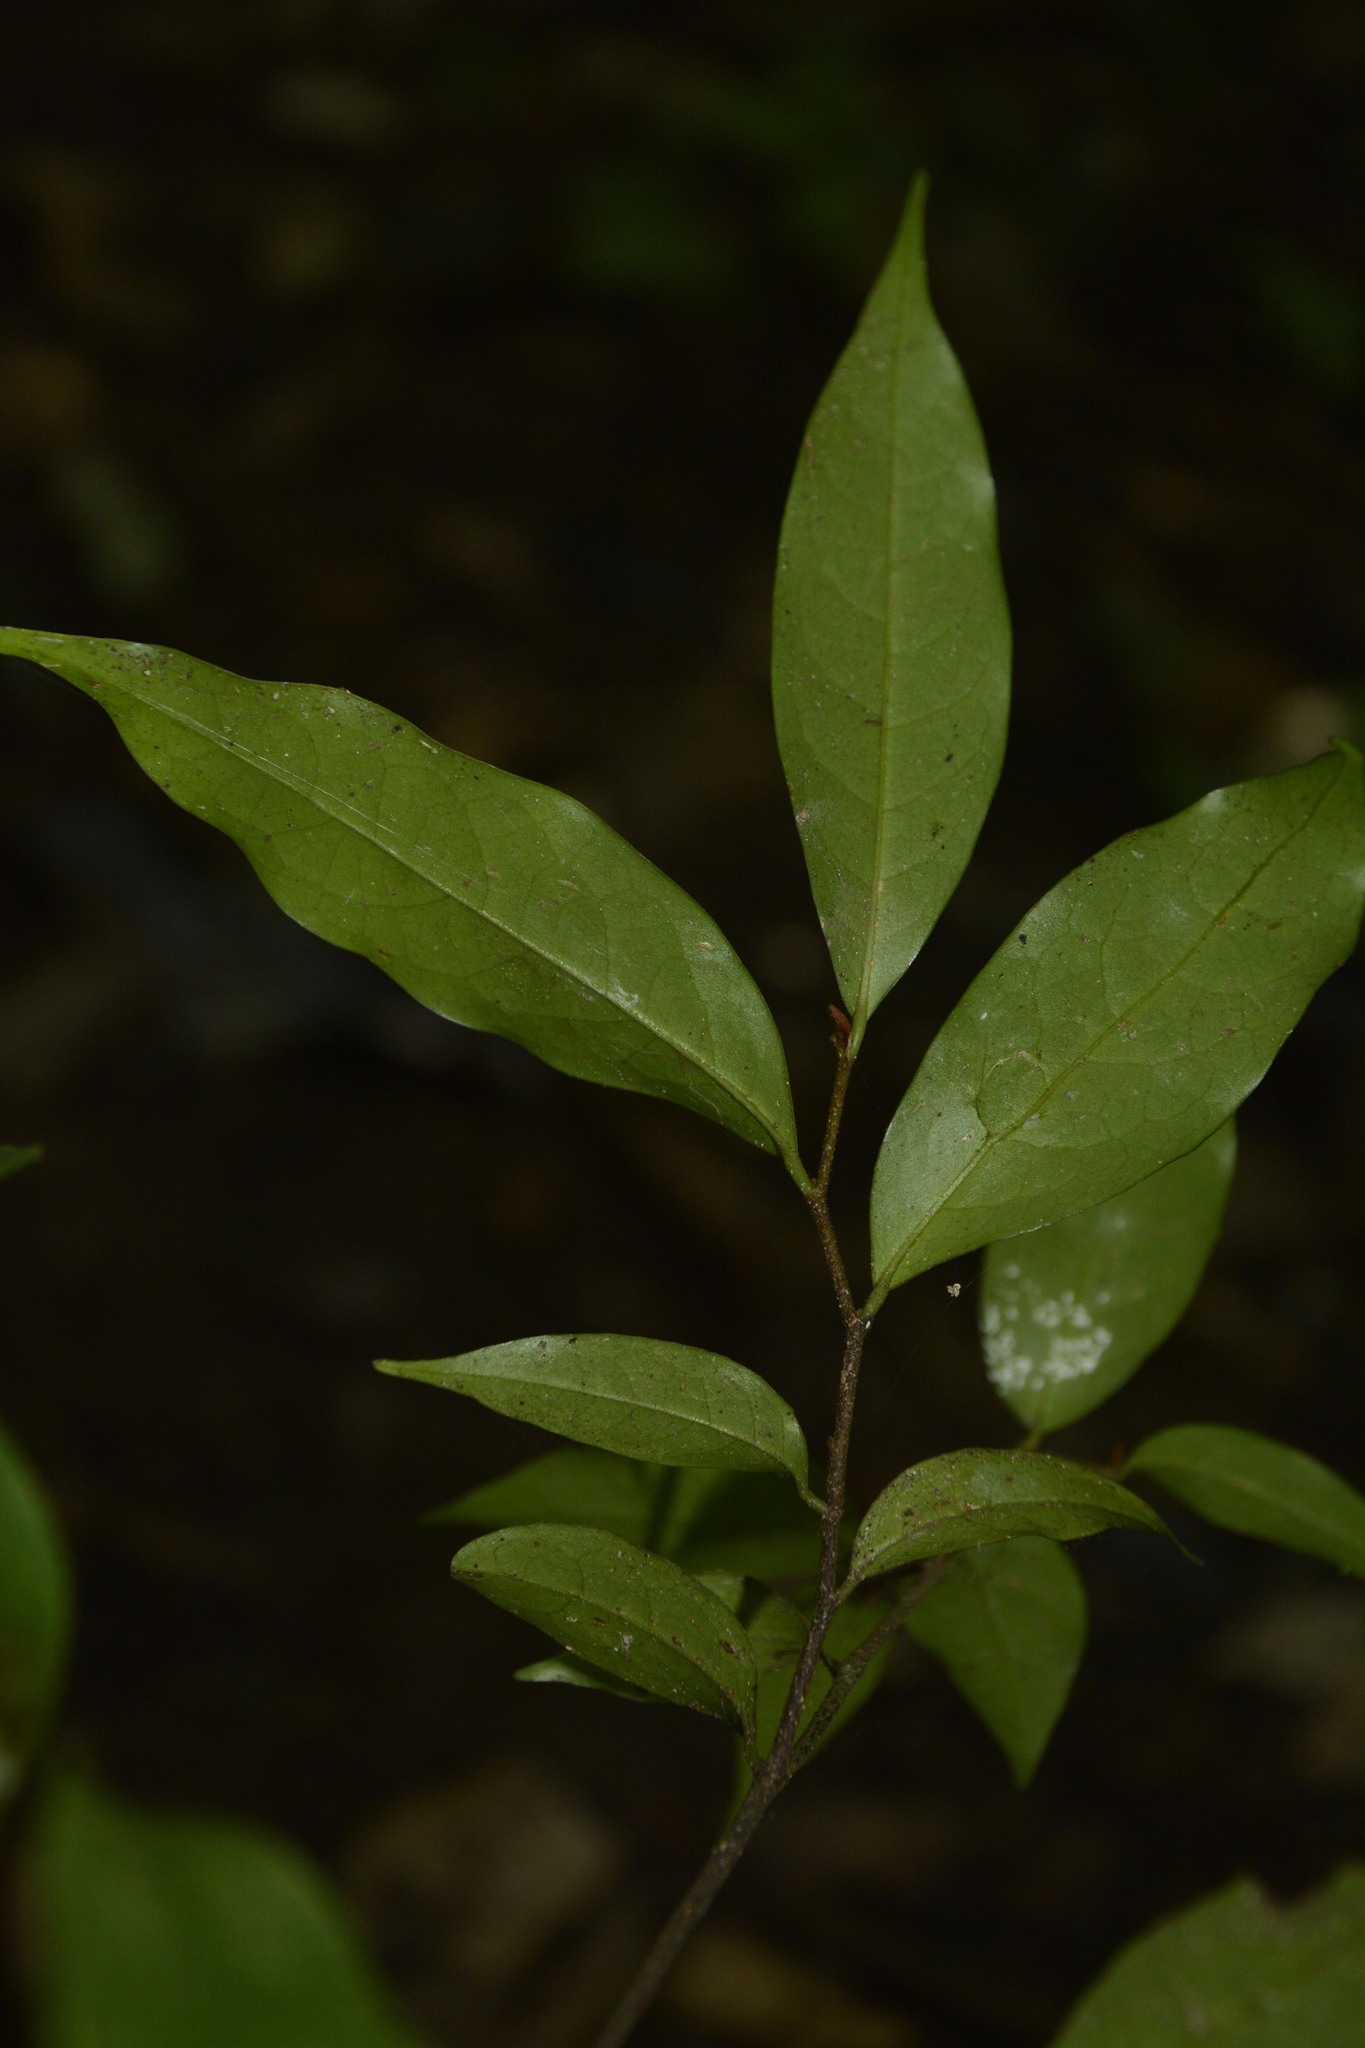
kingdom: Plantae
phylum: Tracheophyta
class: Magnoliopsida
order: Magnoliales
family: Annonaceae
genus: Orophea
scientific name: Orophea thomsonii
